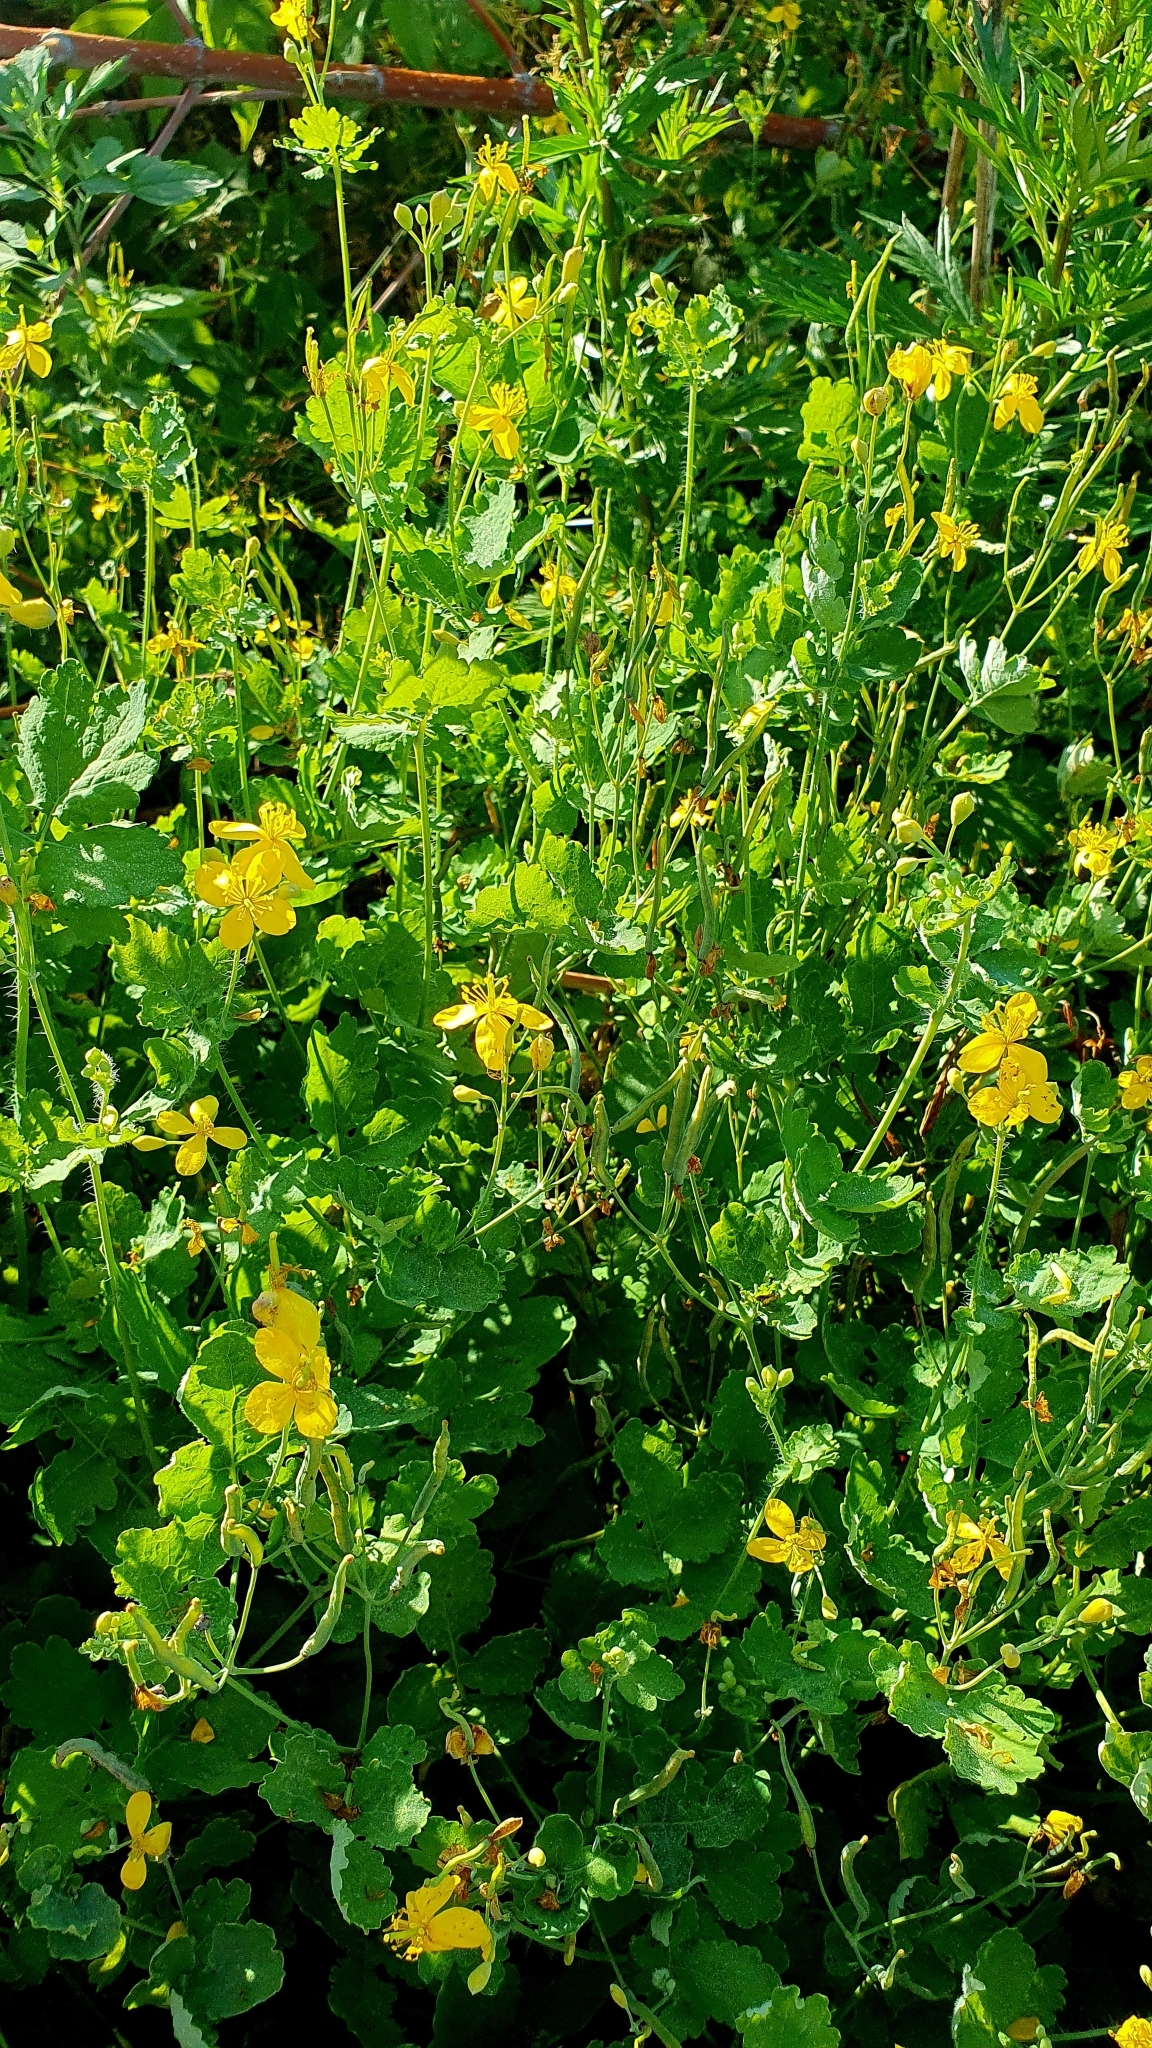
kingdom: Plantae
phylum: Tracheophyta
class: Magnoliopsida
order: Ranunculales
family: Papaveraceae
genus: Chelidonium
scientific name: Chelidonium majus
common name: Greater celandine
